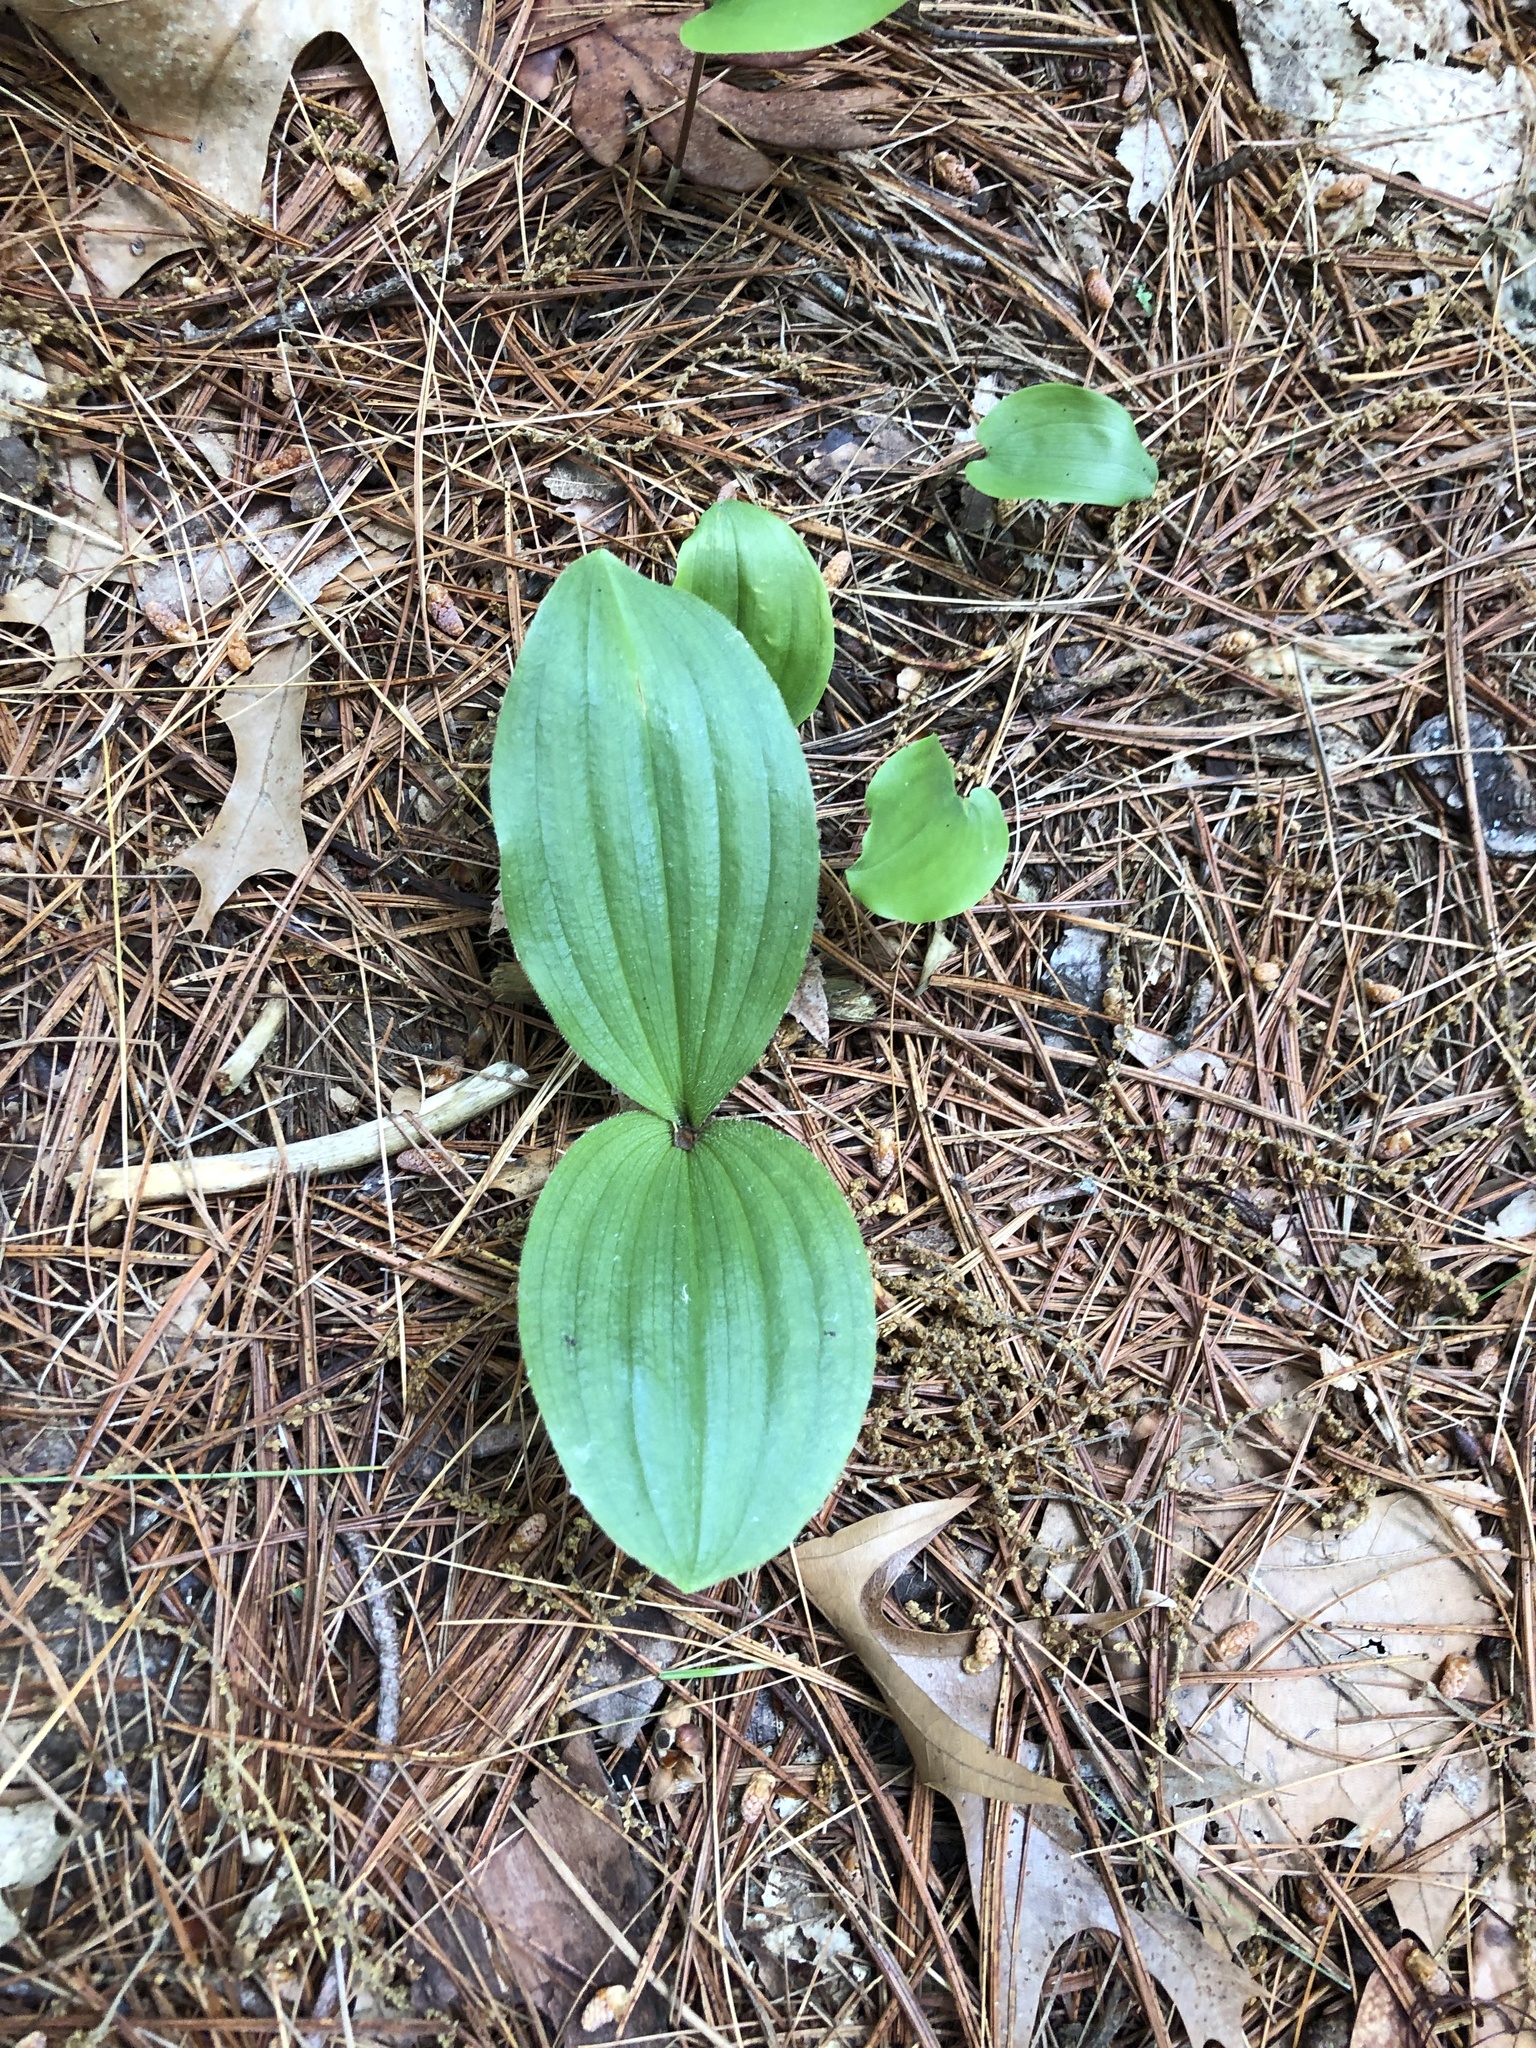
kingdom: Plantae
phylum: Tracheophyta
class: Liliopsida
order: Asparagales
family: Orchidaceae
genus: Cypripedium
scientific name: Cypripedium acaule
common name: Pink lady's-slipper
